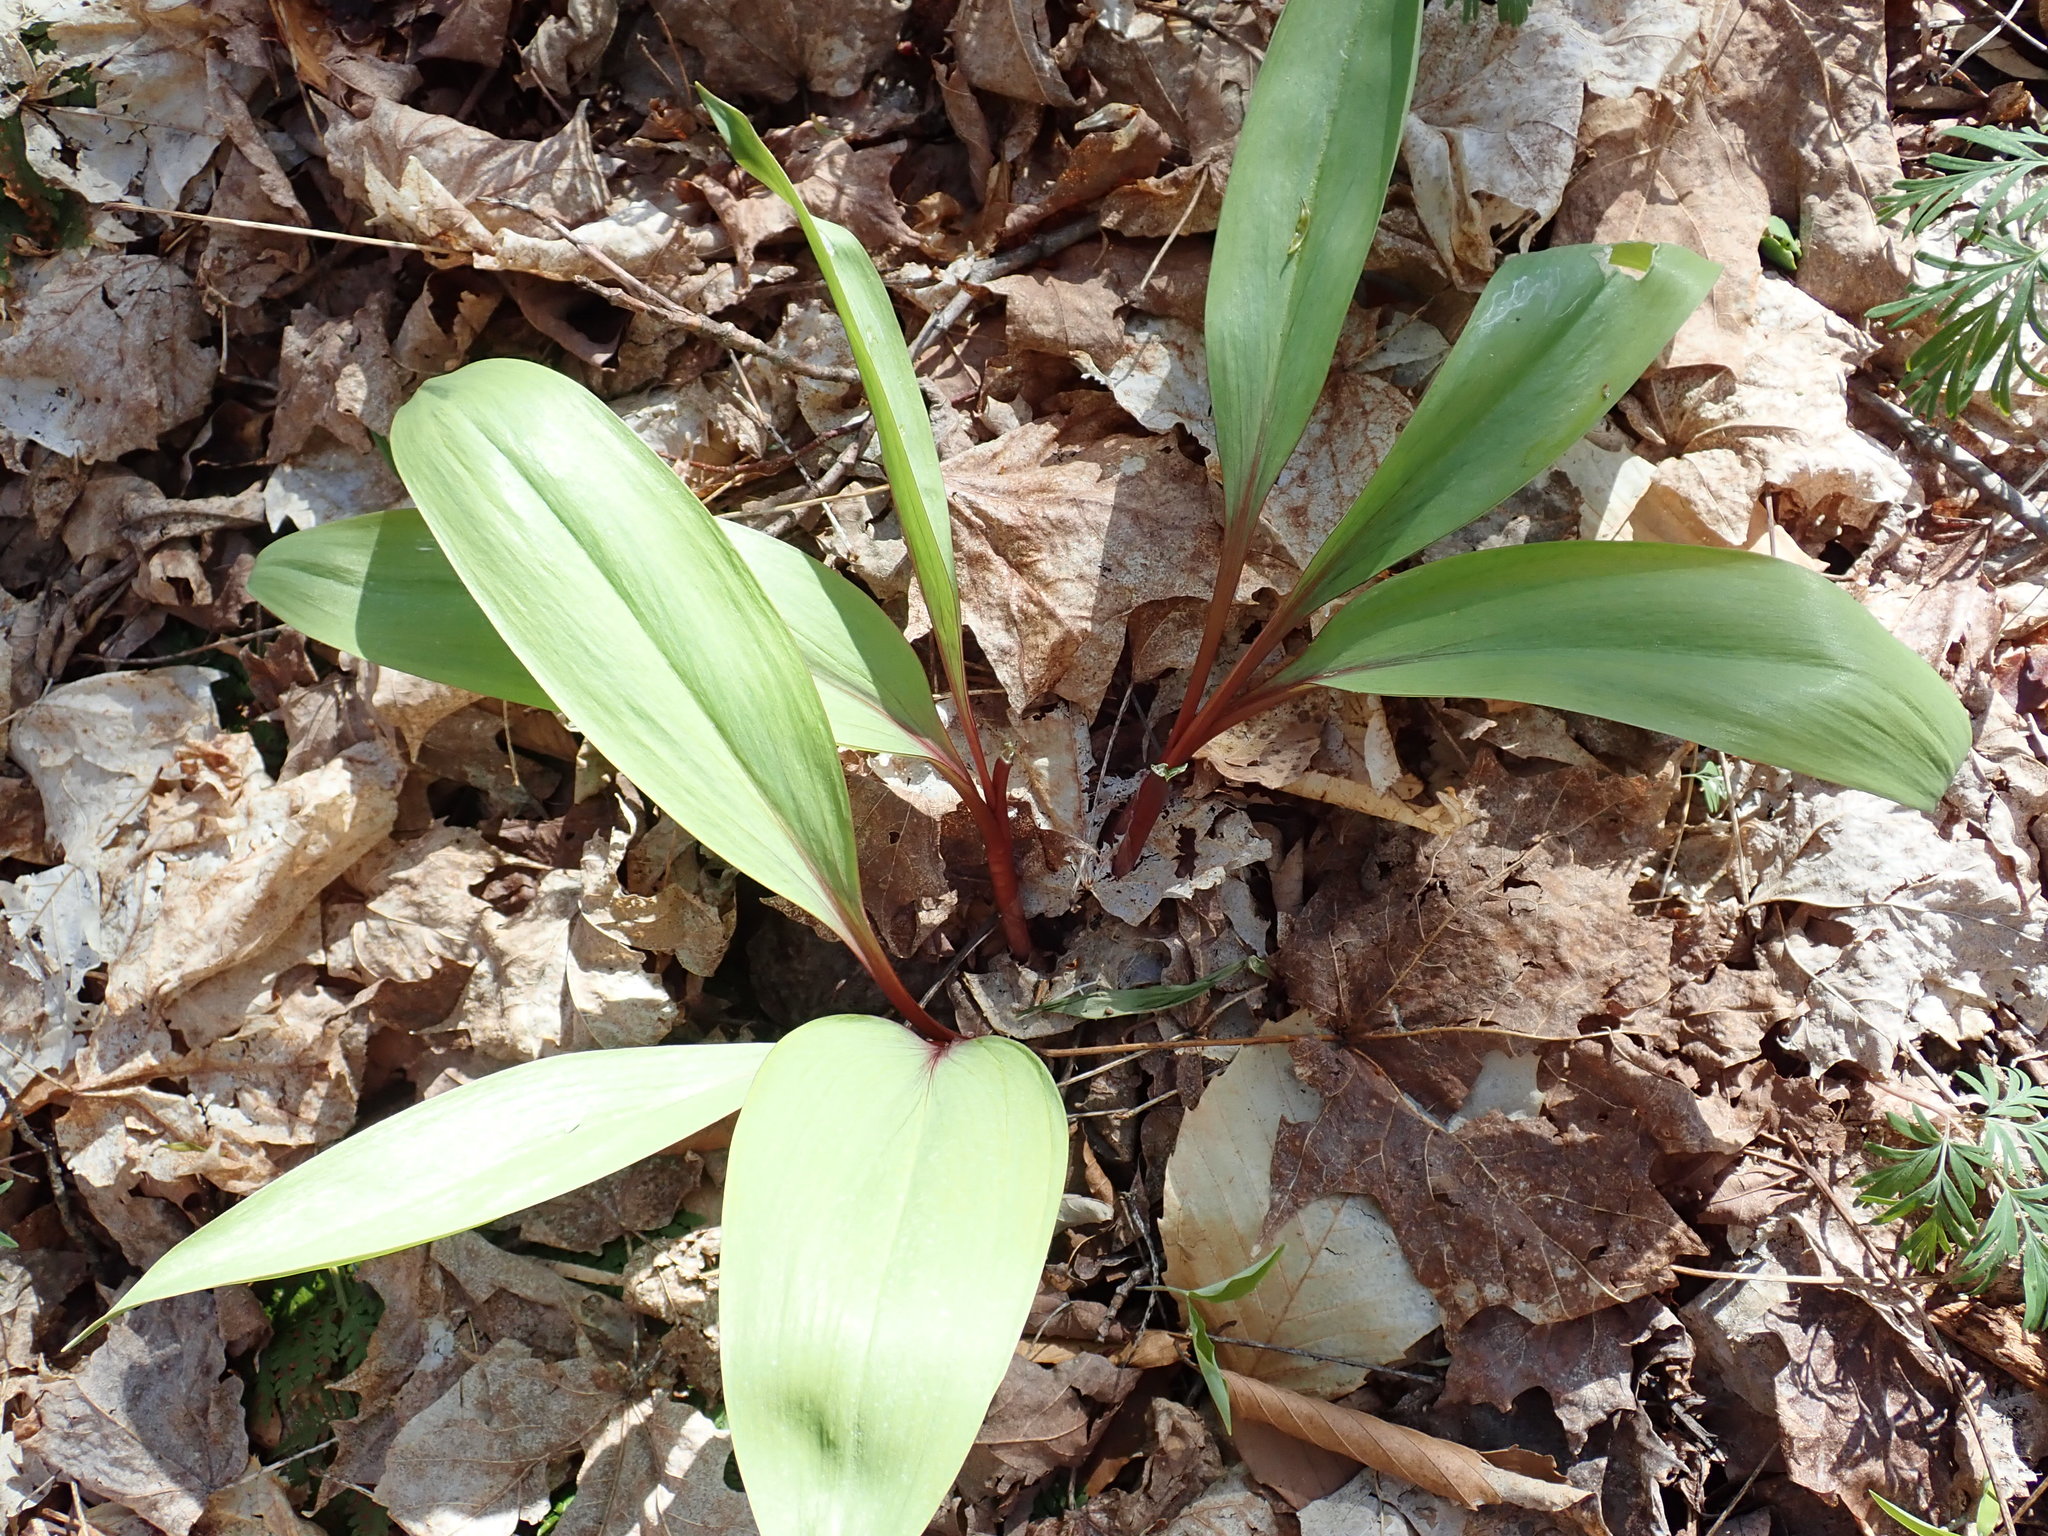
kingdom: Plantae
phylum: Tracheophyta
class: Liliopsida
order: Asparagales
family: Amaryllidaceae
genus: Allium
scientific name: Allium tricoccum
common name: Ramp
